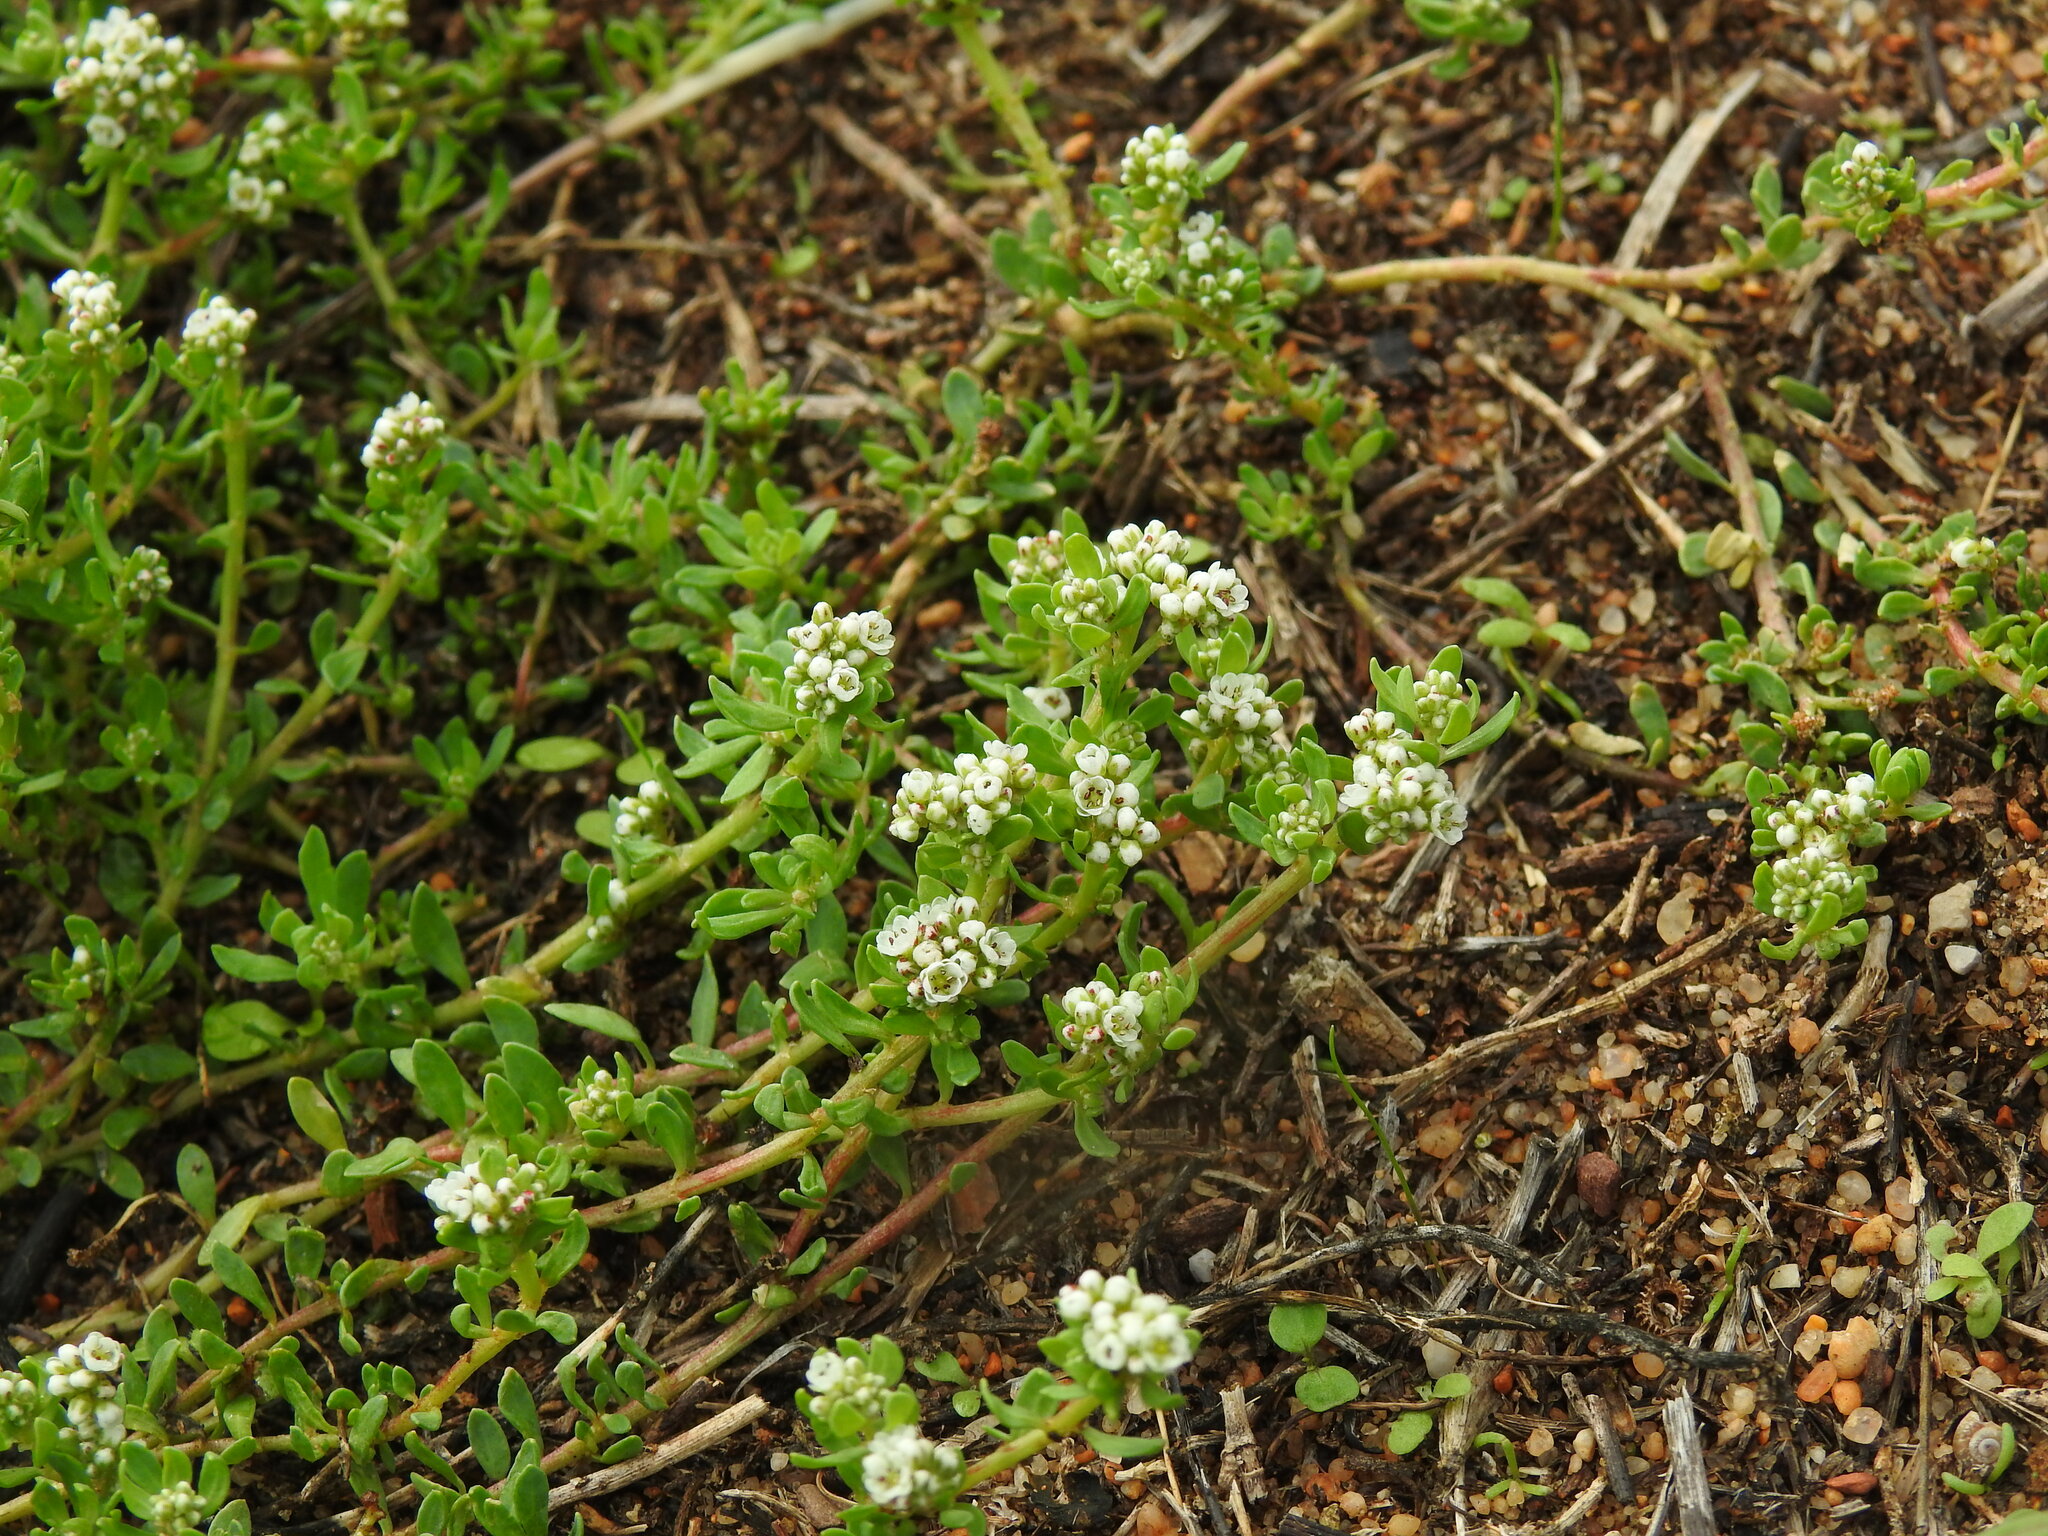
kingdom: Plantae
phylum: Tracheophyta
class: Magnoliopsida
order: Caryophyllales
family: Caryophyllaceae
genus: Corrigiola
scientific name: Corrigiola litoralis
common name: Strapwort
